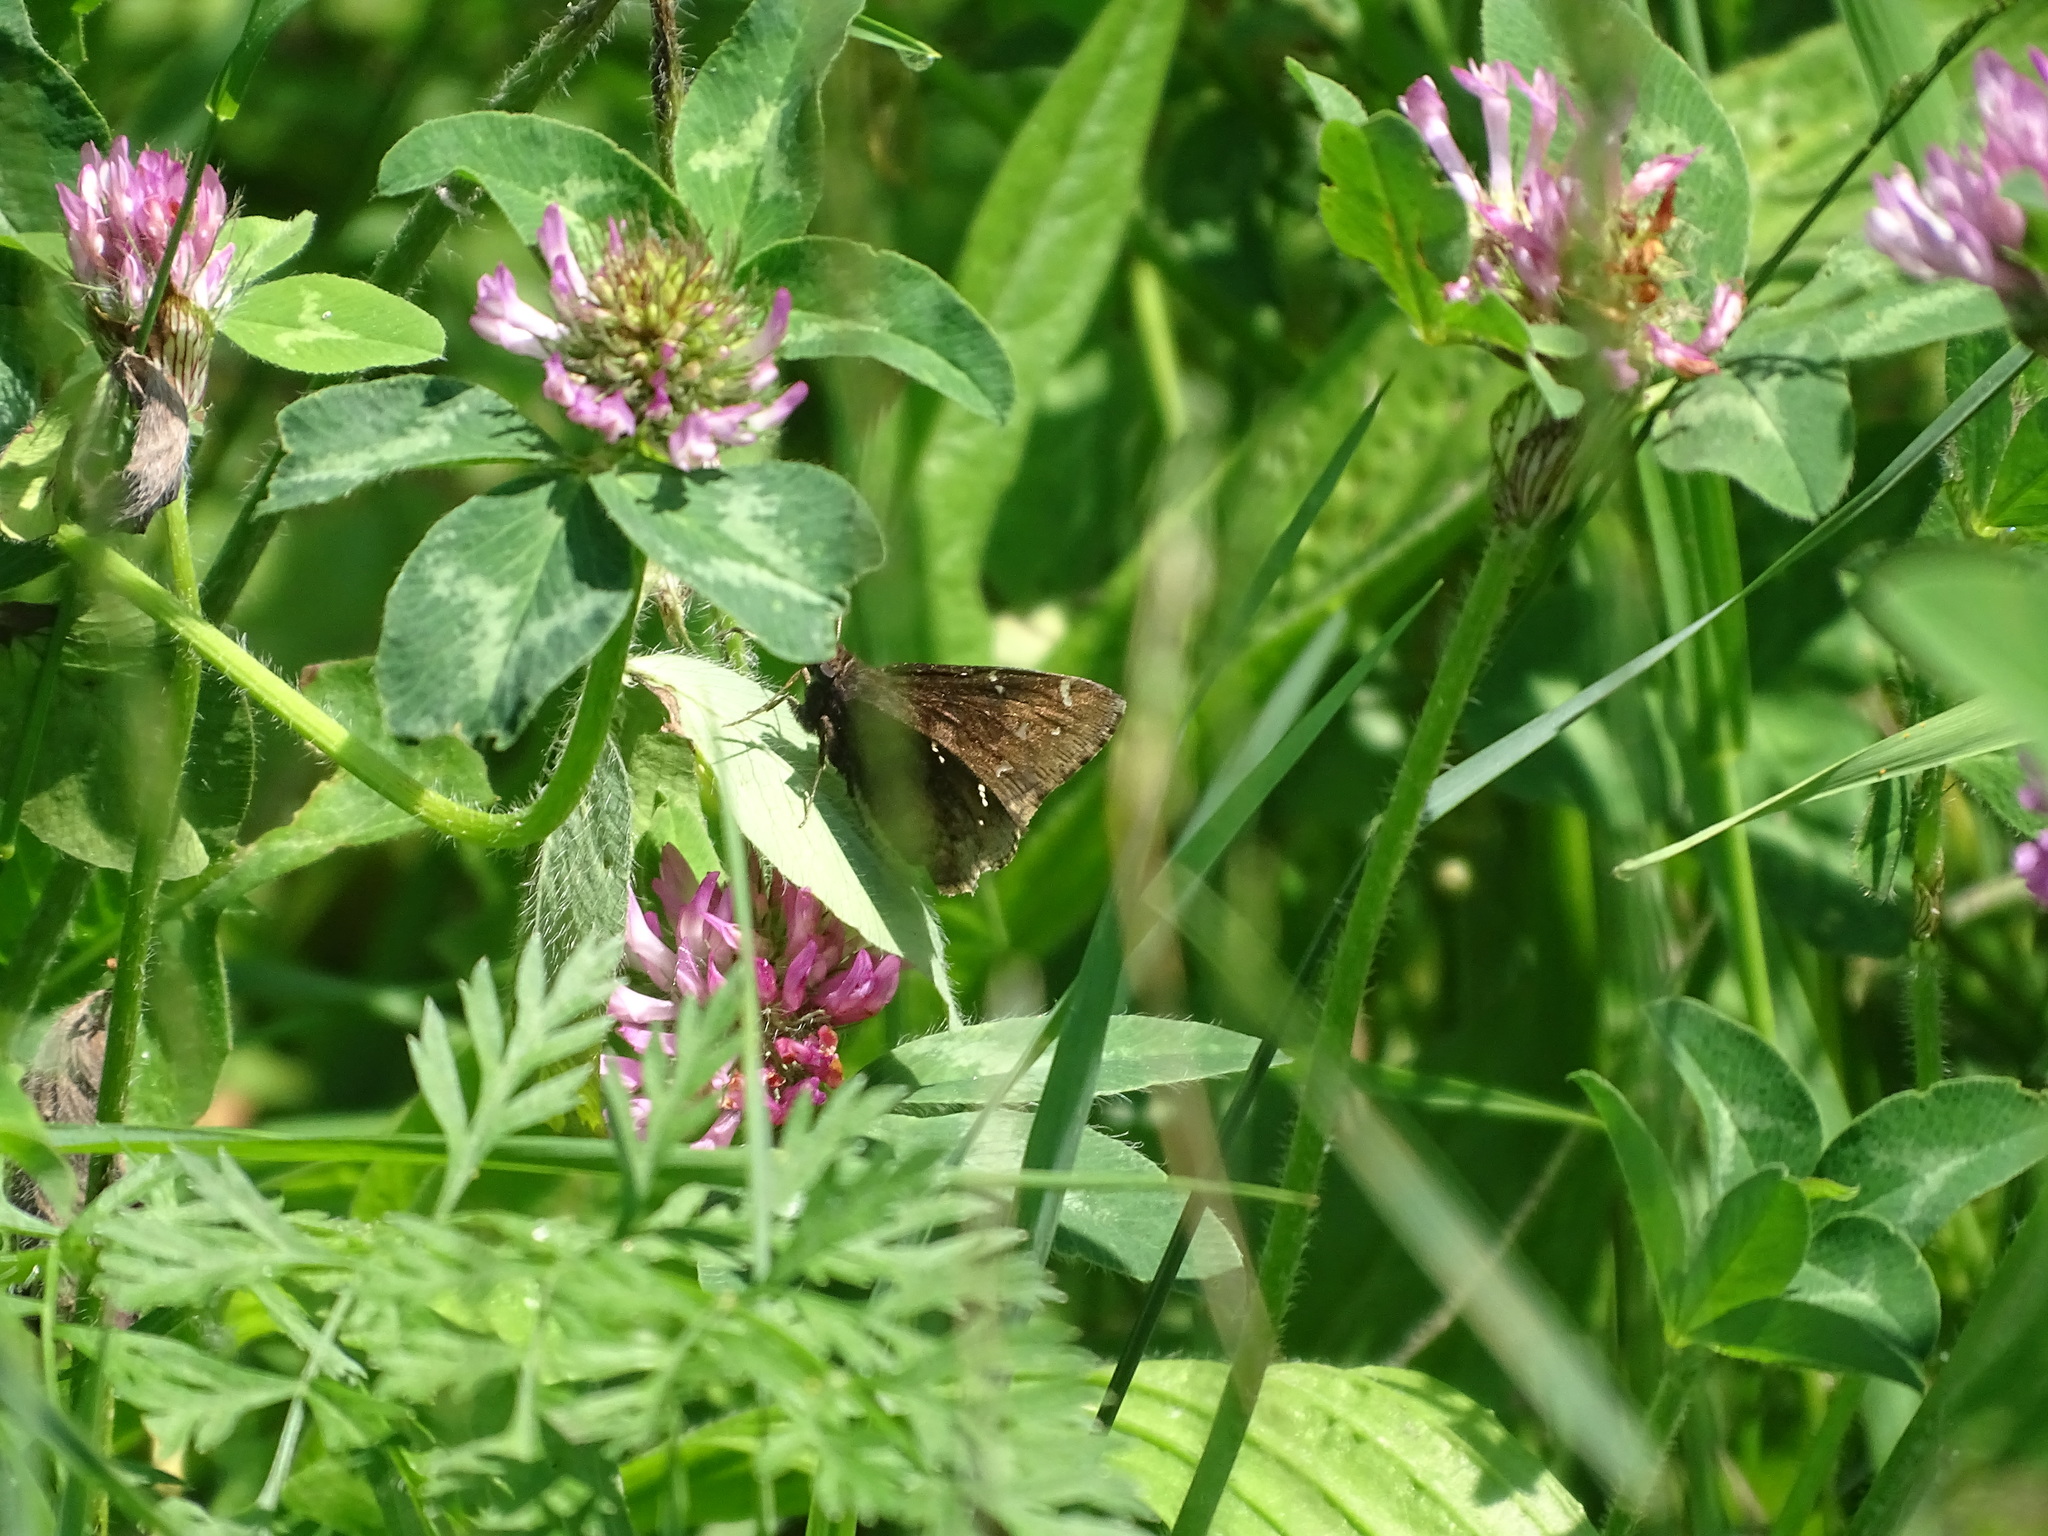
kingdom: Animalia
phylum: Arthropoda
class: Insecta
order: Lepidoptera
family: Hesperiidae
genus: Thorybes
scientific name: Thorybes pylades
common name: Northern cloudywing
